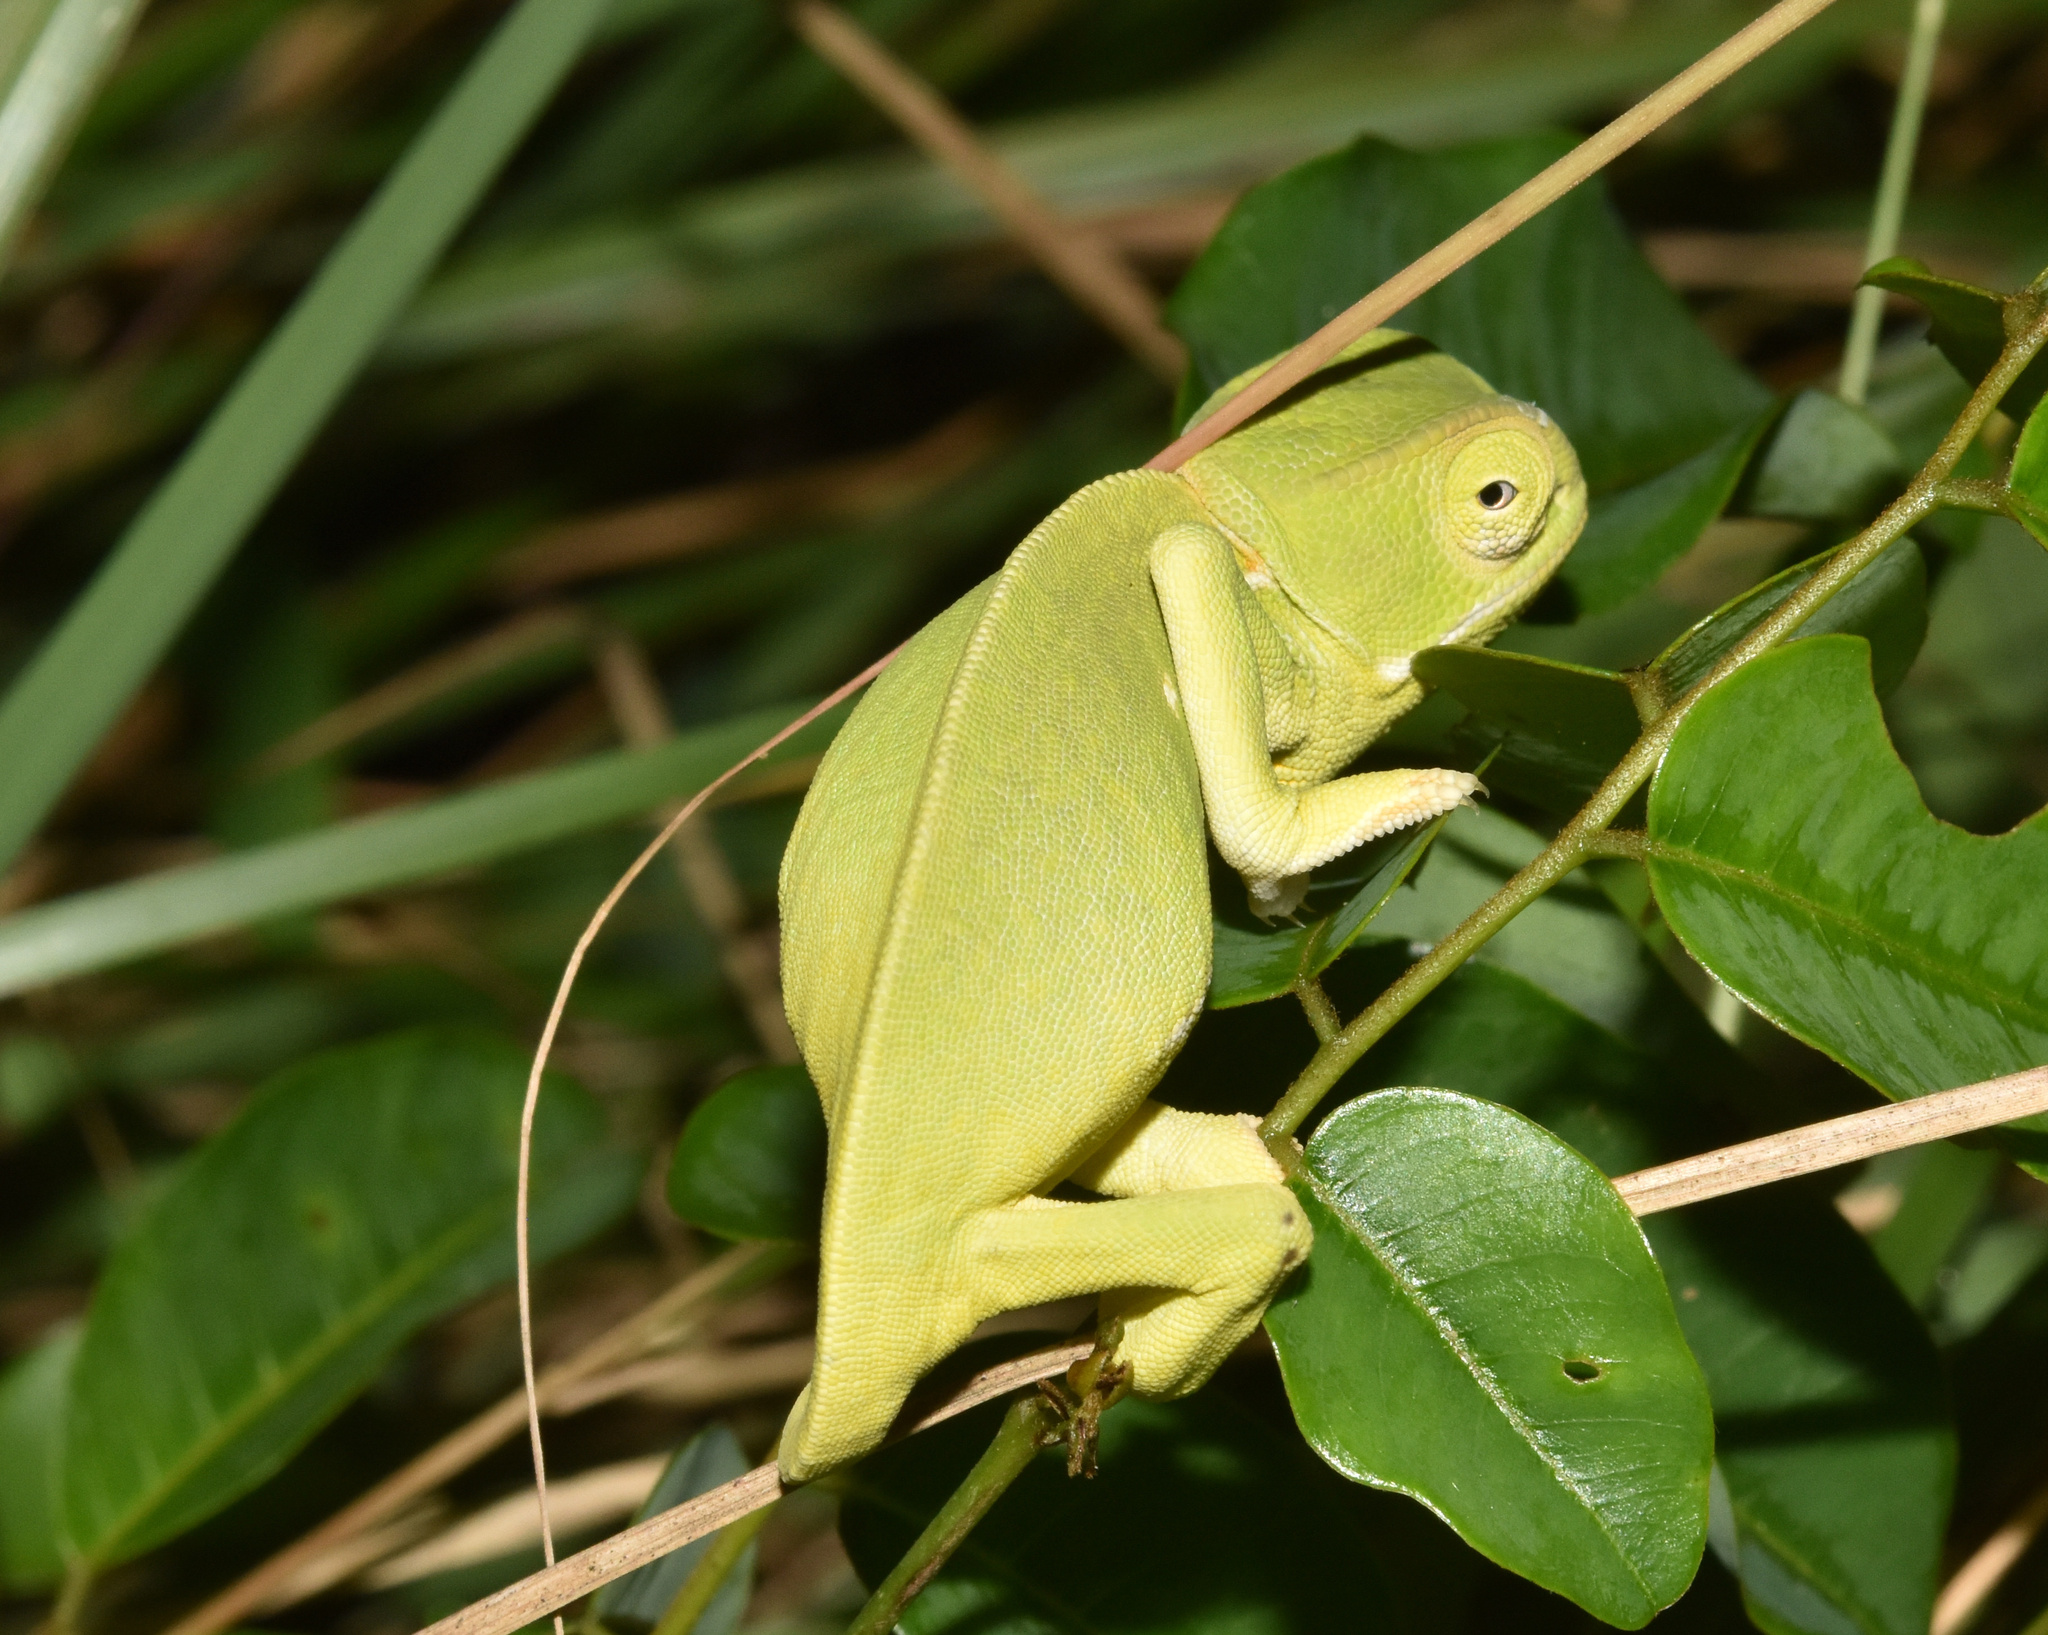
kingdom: Animalia
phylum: Chordata
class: Squamata
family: Chamaeleonidae
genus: Chamaeleo
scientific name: Chamaeleo dilepis
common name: Flapneck chameleon
